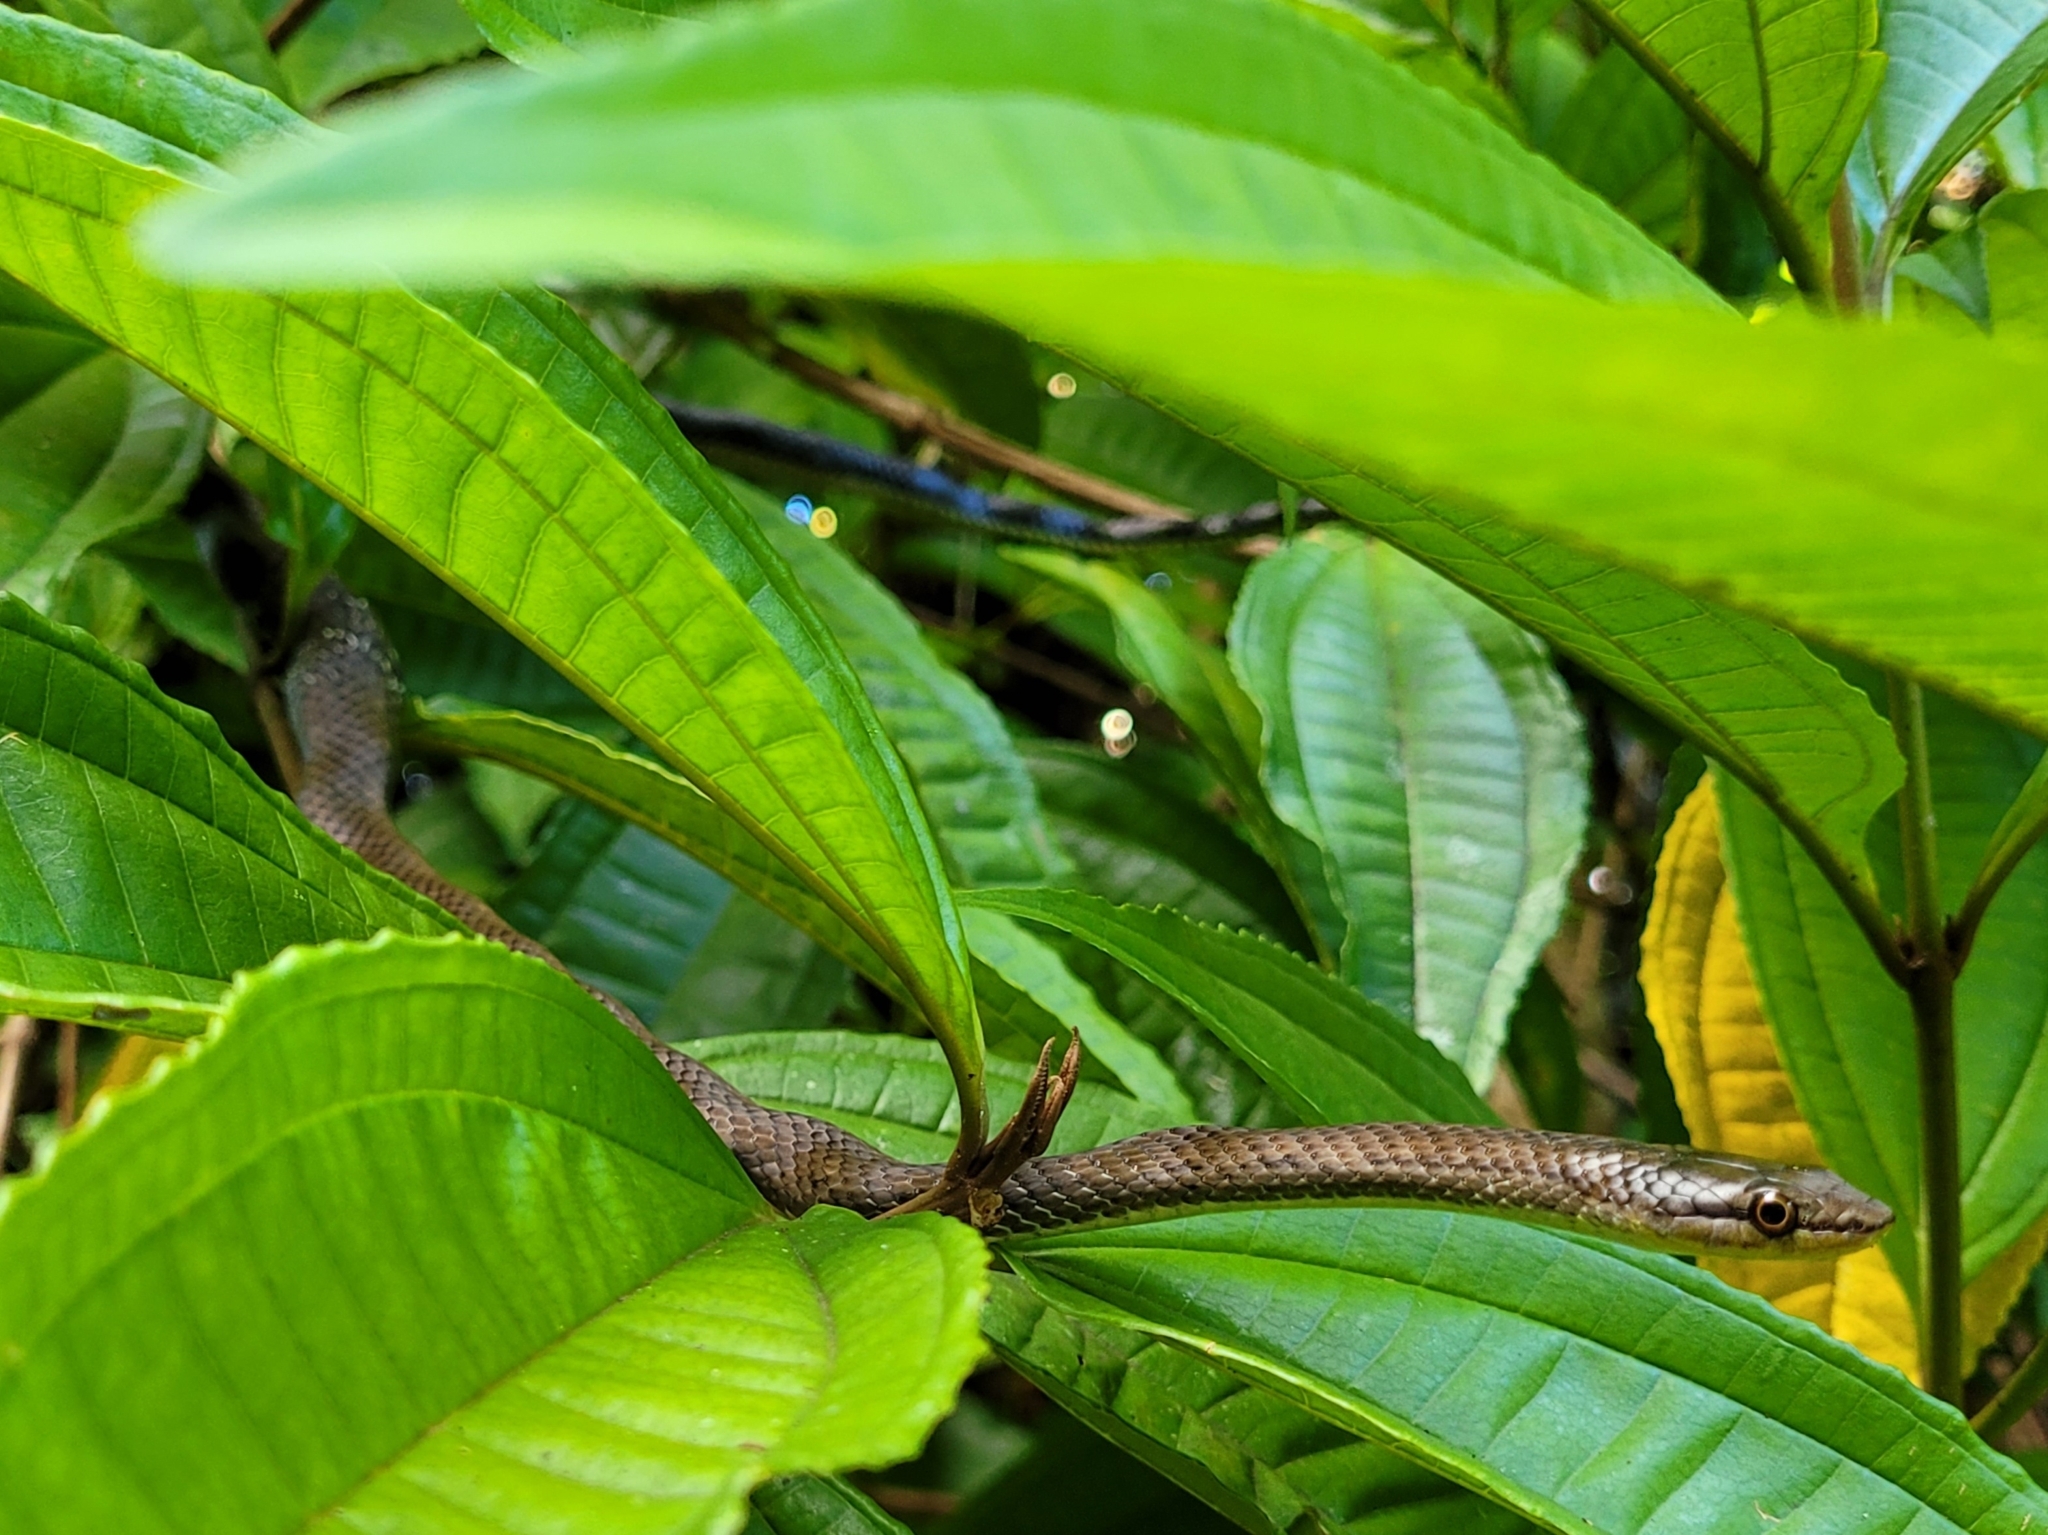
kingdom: Animalia
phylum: Chordata
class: Squamata
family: Colubridae
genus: Borikenophis
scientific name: Borikenophis portoricensis
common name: Puerto rican racer
